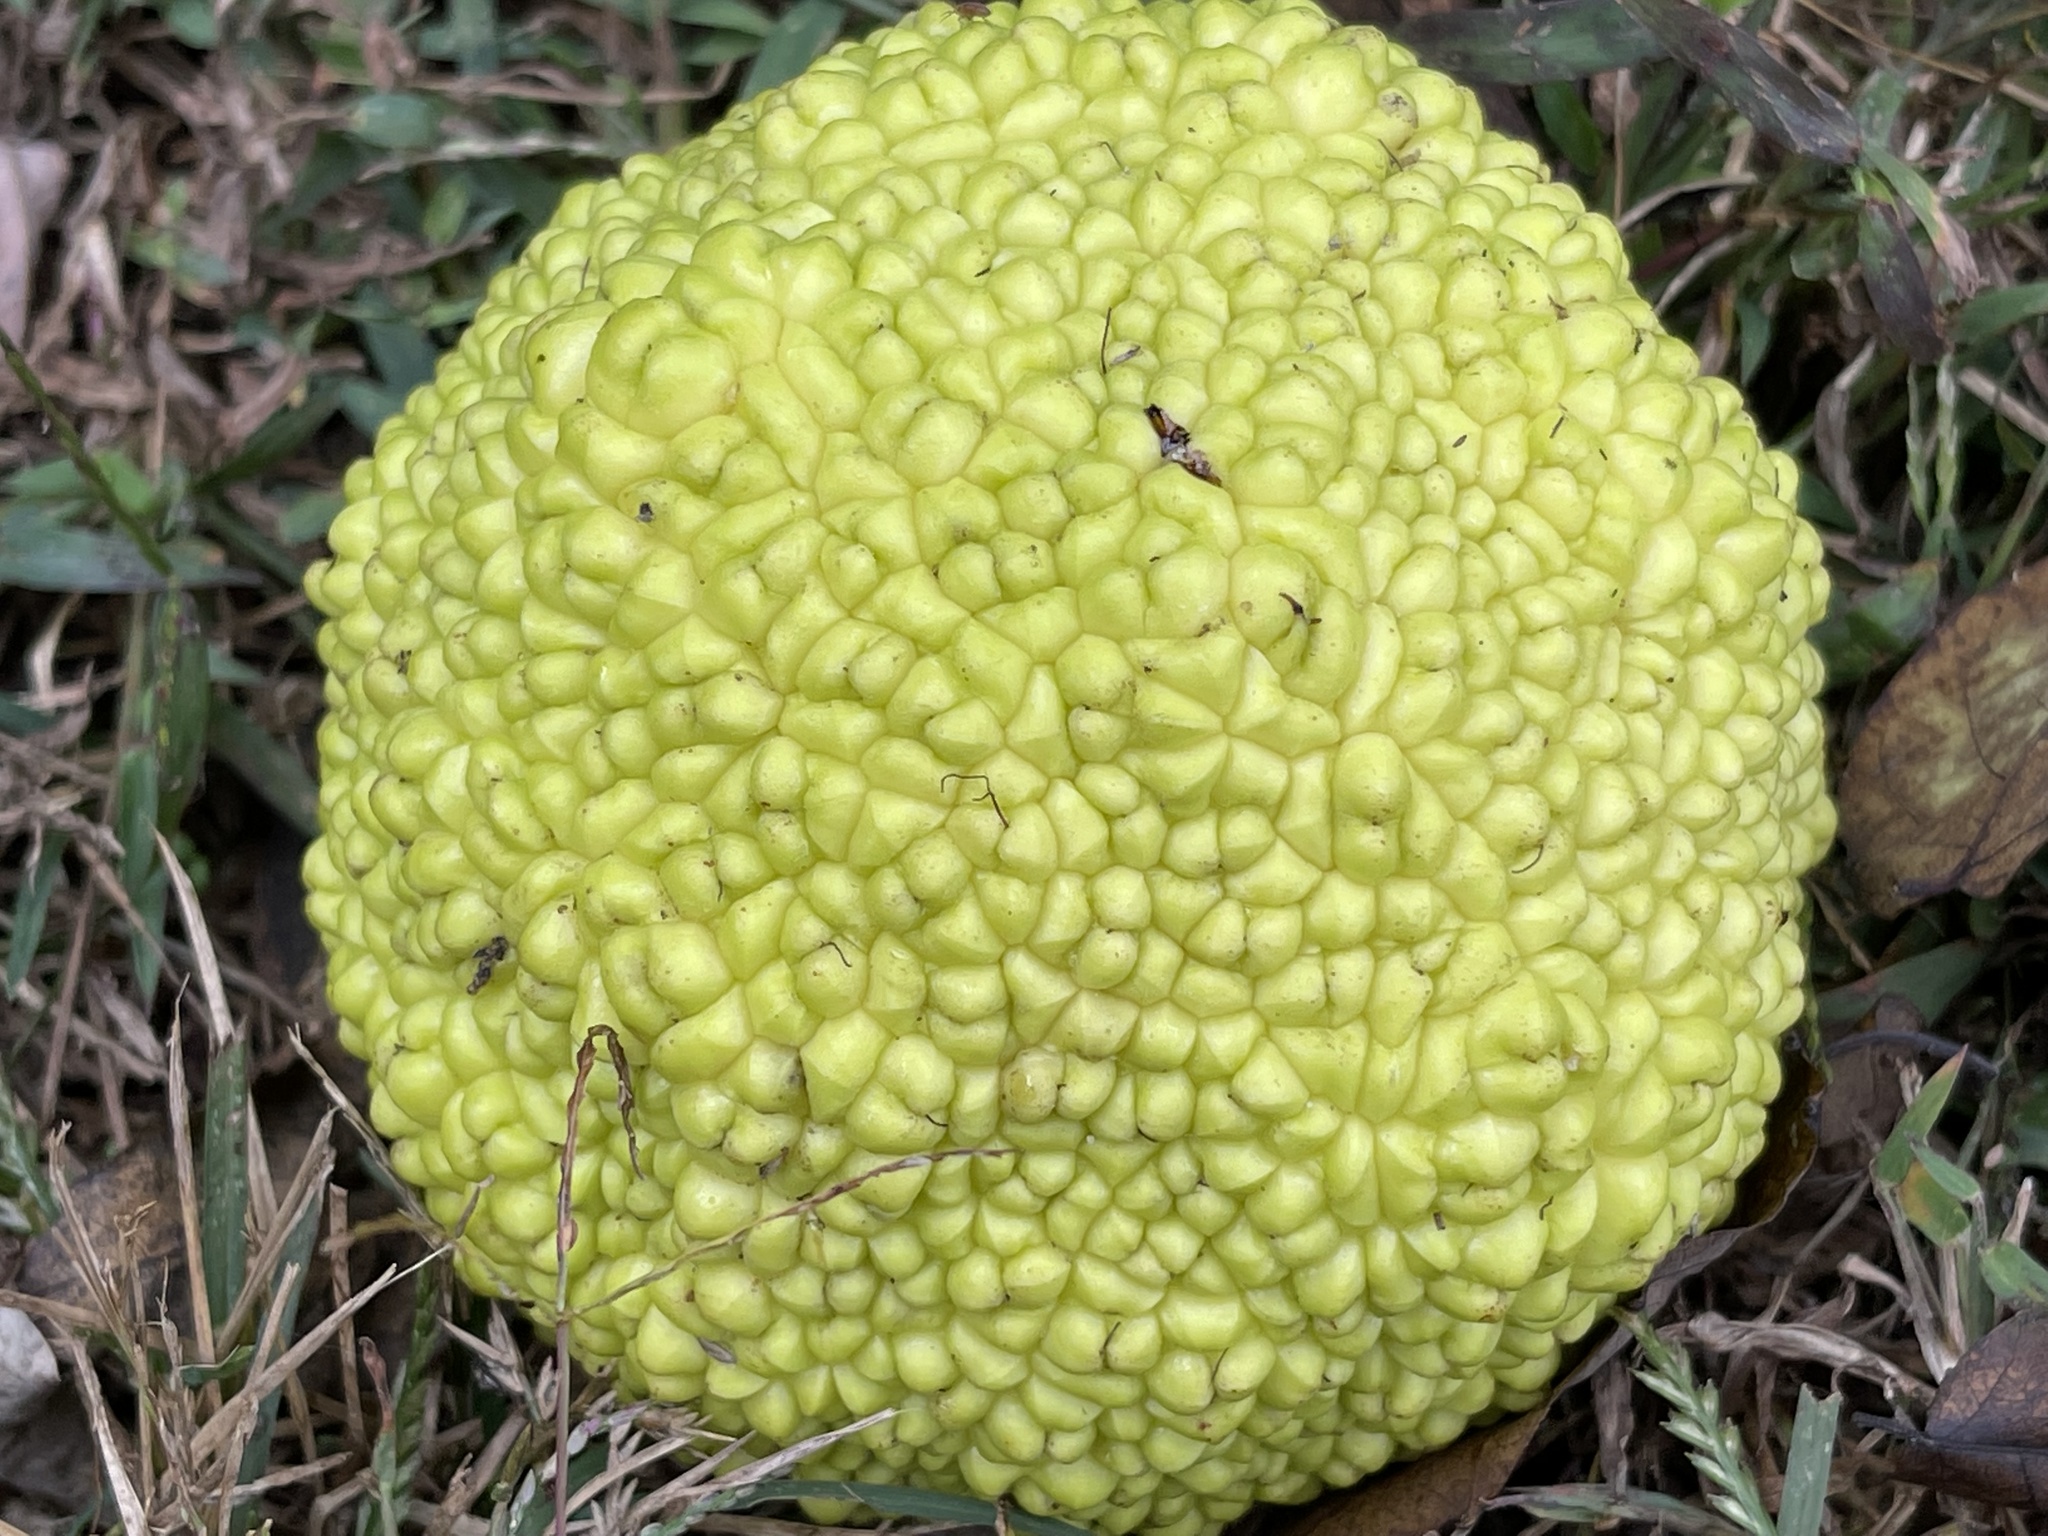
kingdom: Plantae
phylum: Tracheophyta
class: Magnoliopsida
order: Rosales
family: Moraceae
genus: Maclura
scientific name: Maclura pomifera
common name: Osage-orange
